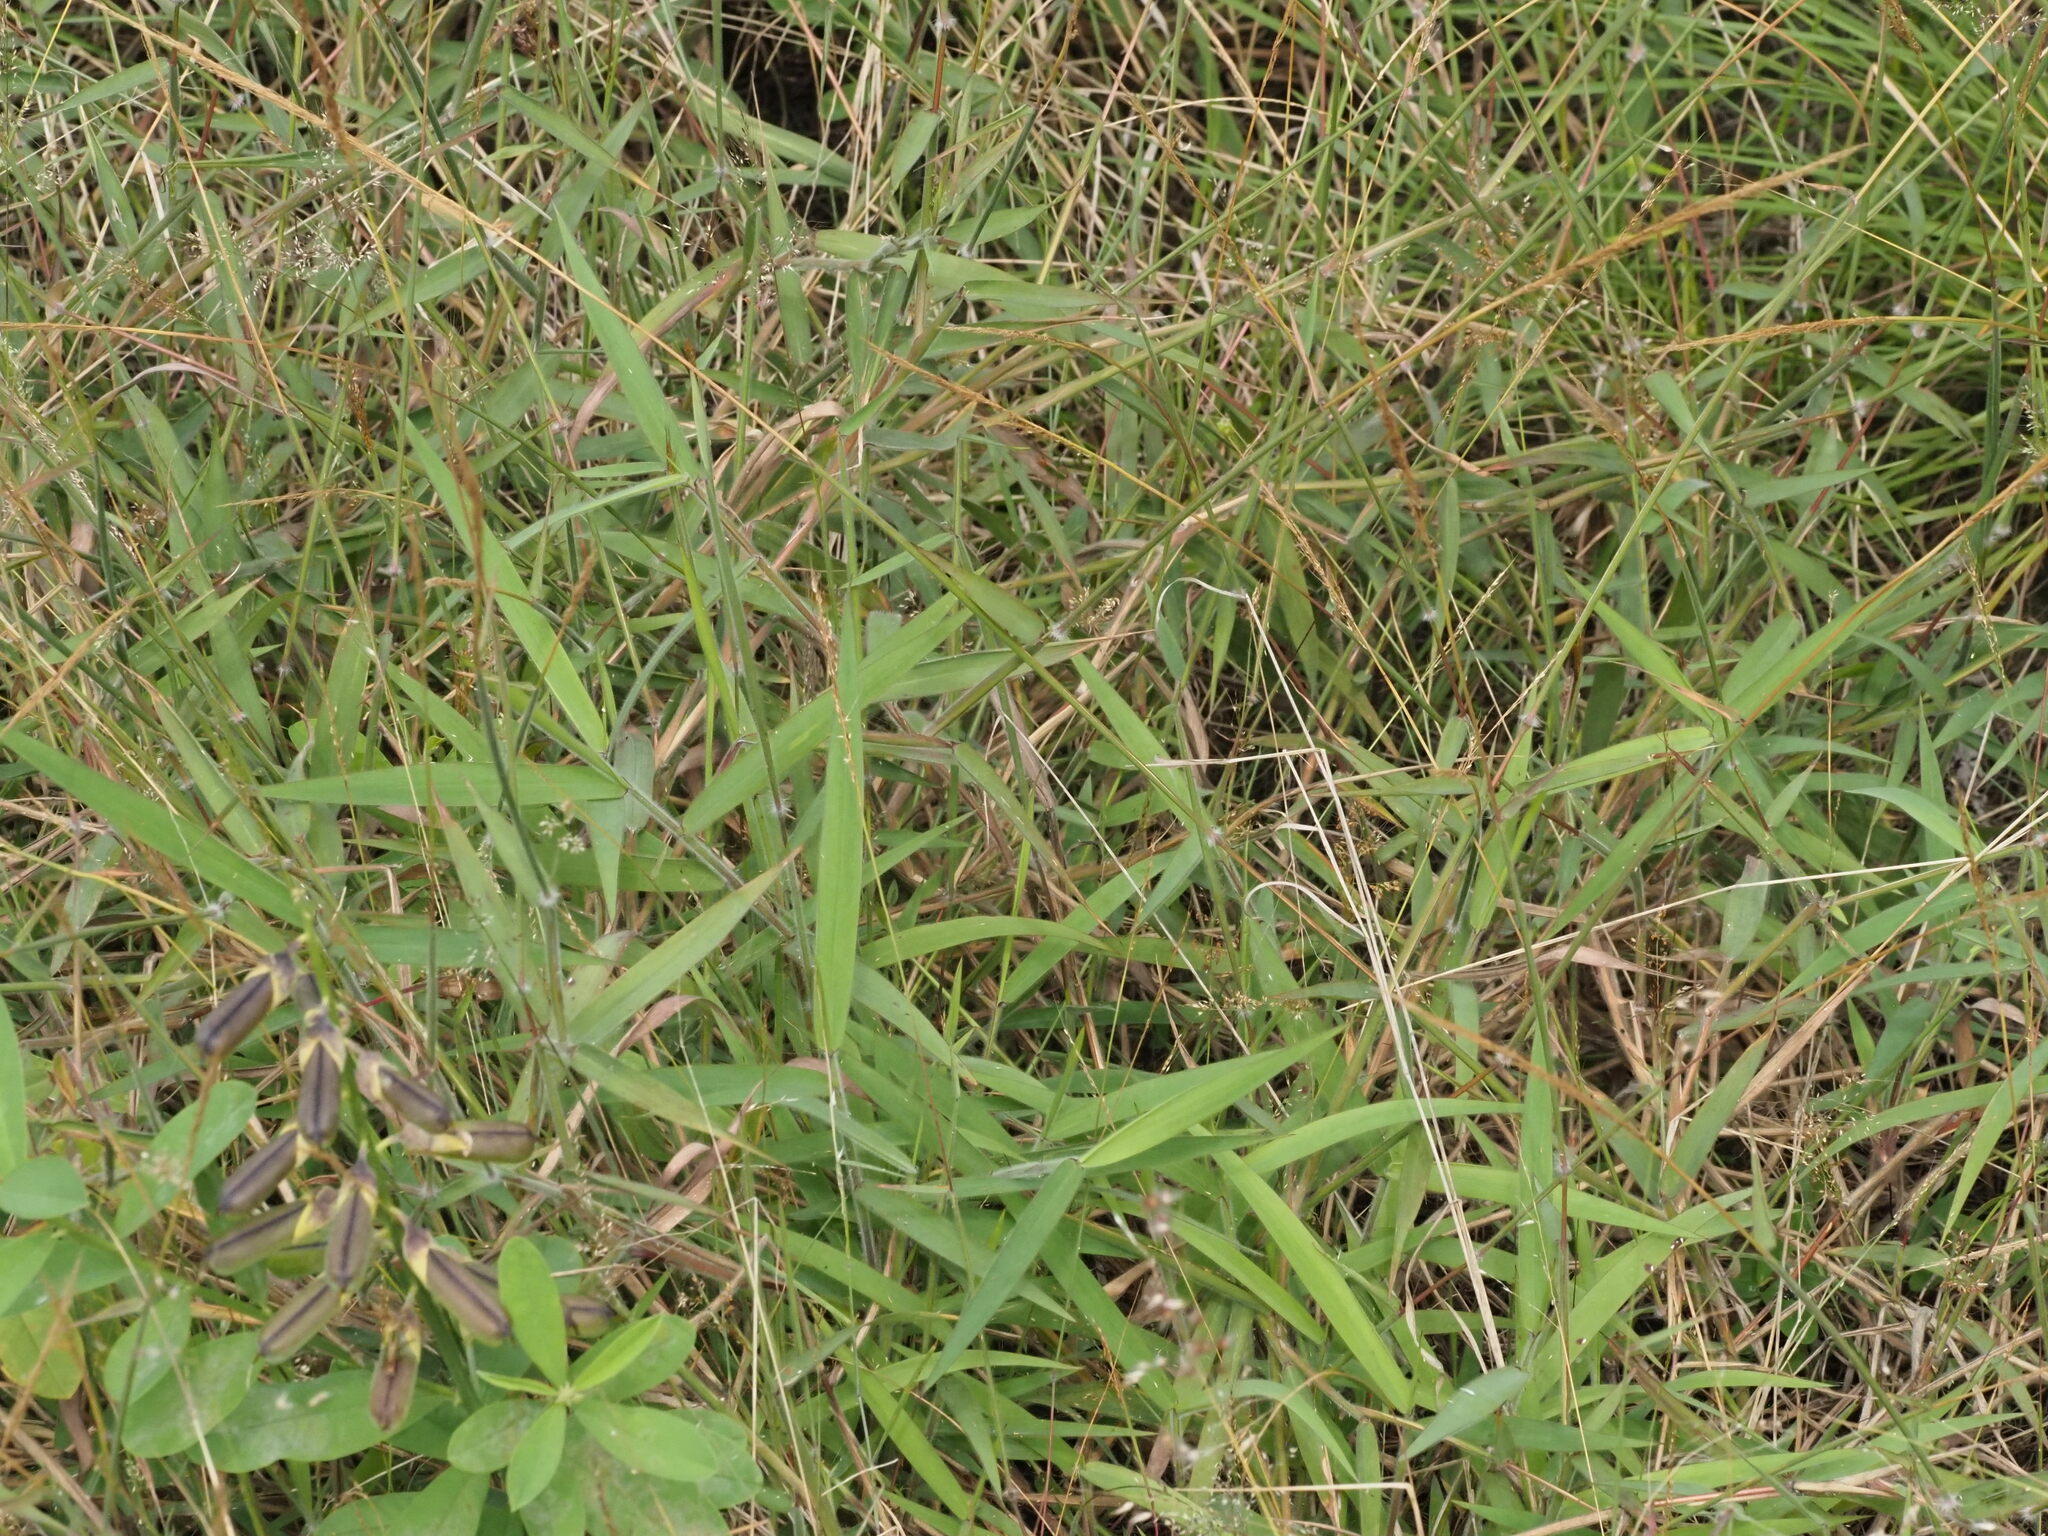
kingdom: Plantae
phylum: Tracheophyta
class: Liliopsida
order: Poales
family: Poaceae
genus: Melinis
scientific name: Melinis minutiflora
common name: Molassesgrass
